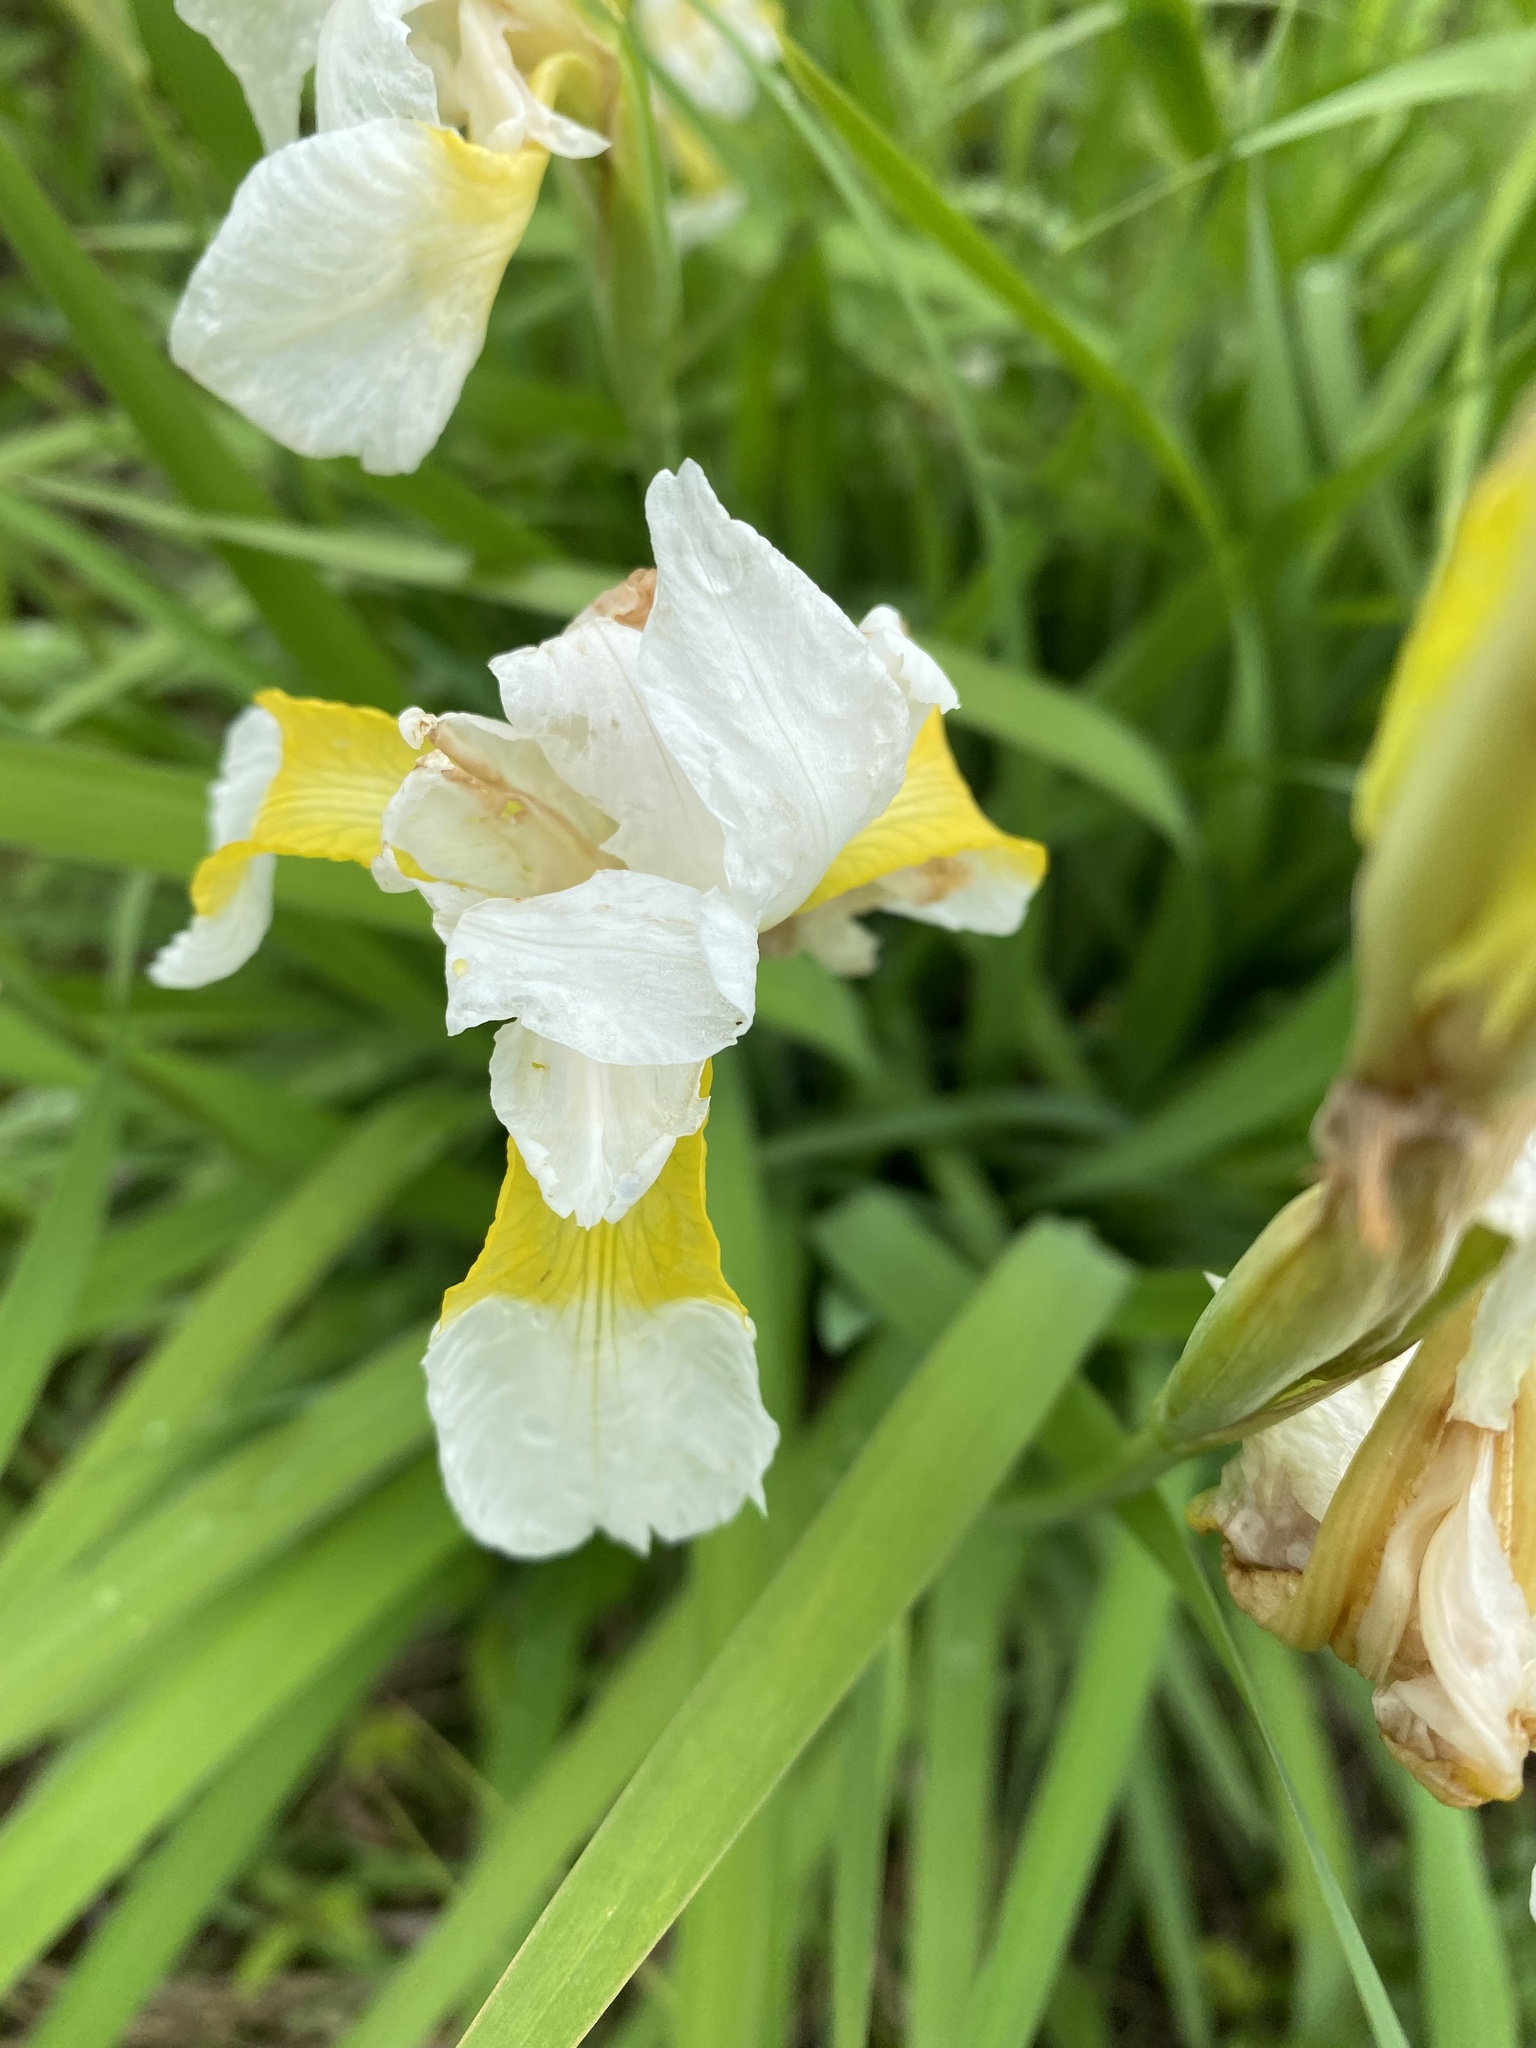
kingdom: Plantae
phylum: Tracheophyta
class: Liliopsida
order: Asparagales
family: Iridaceae
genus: Iris
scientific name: Iris sanguinea
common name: Blood iris
